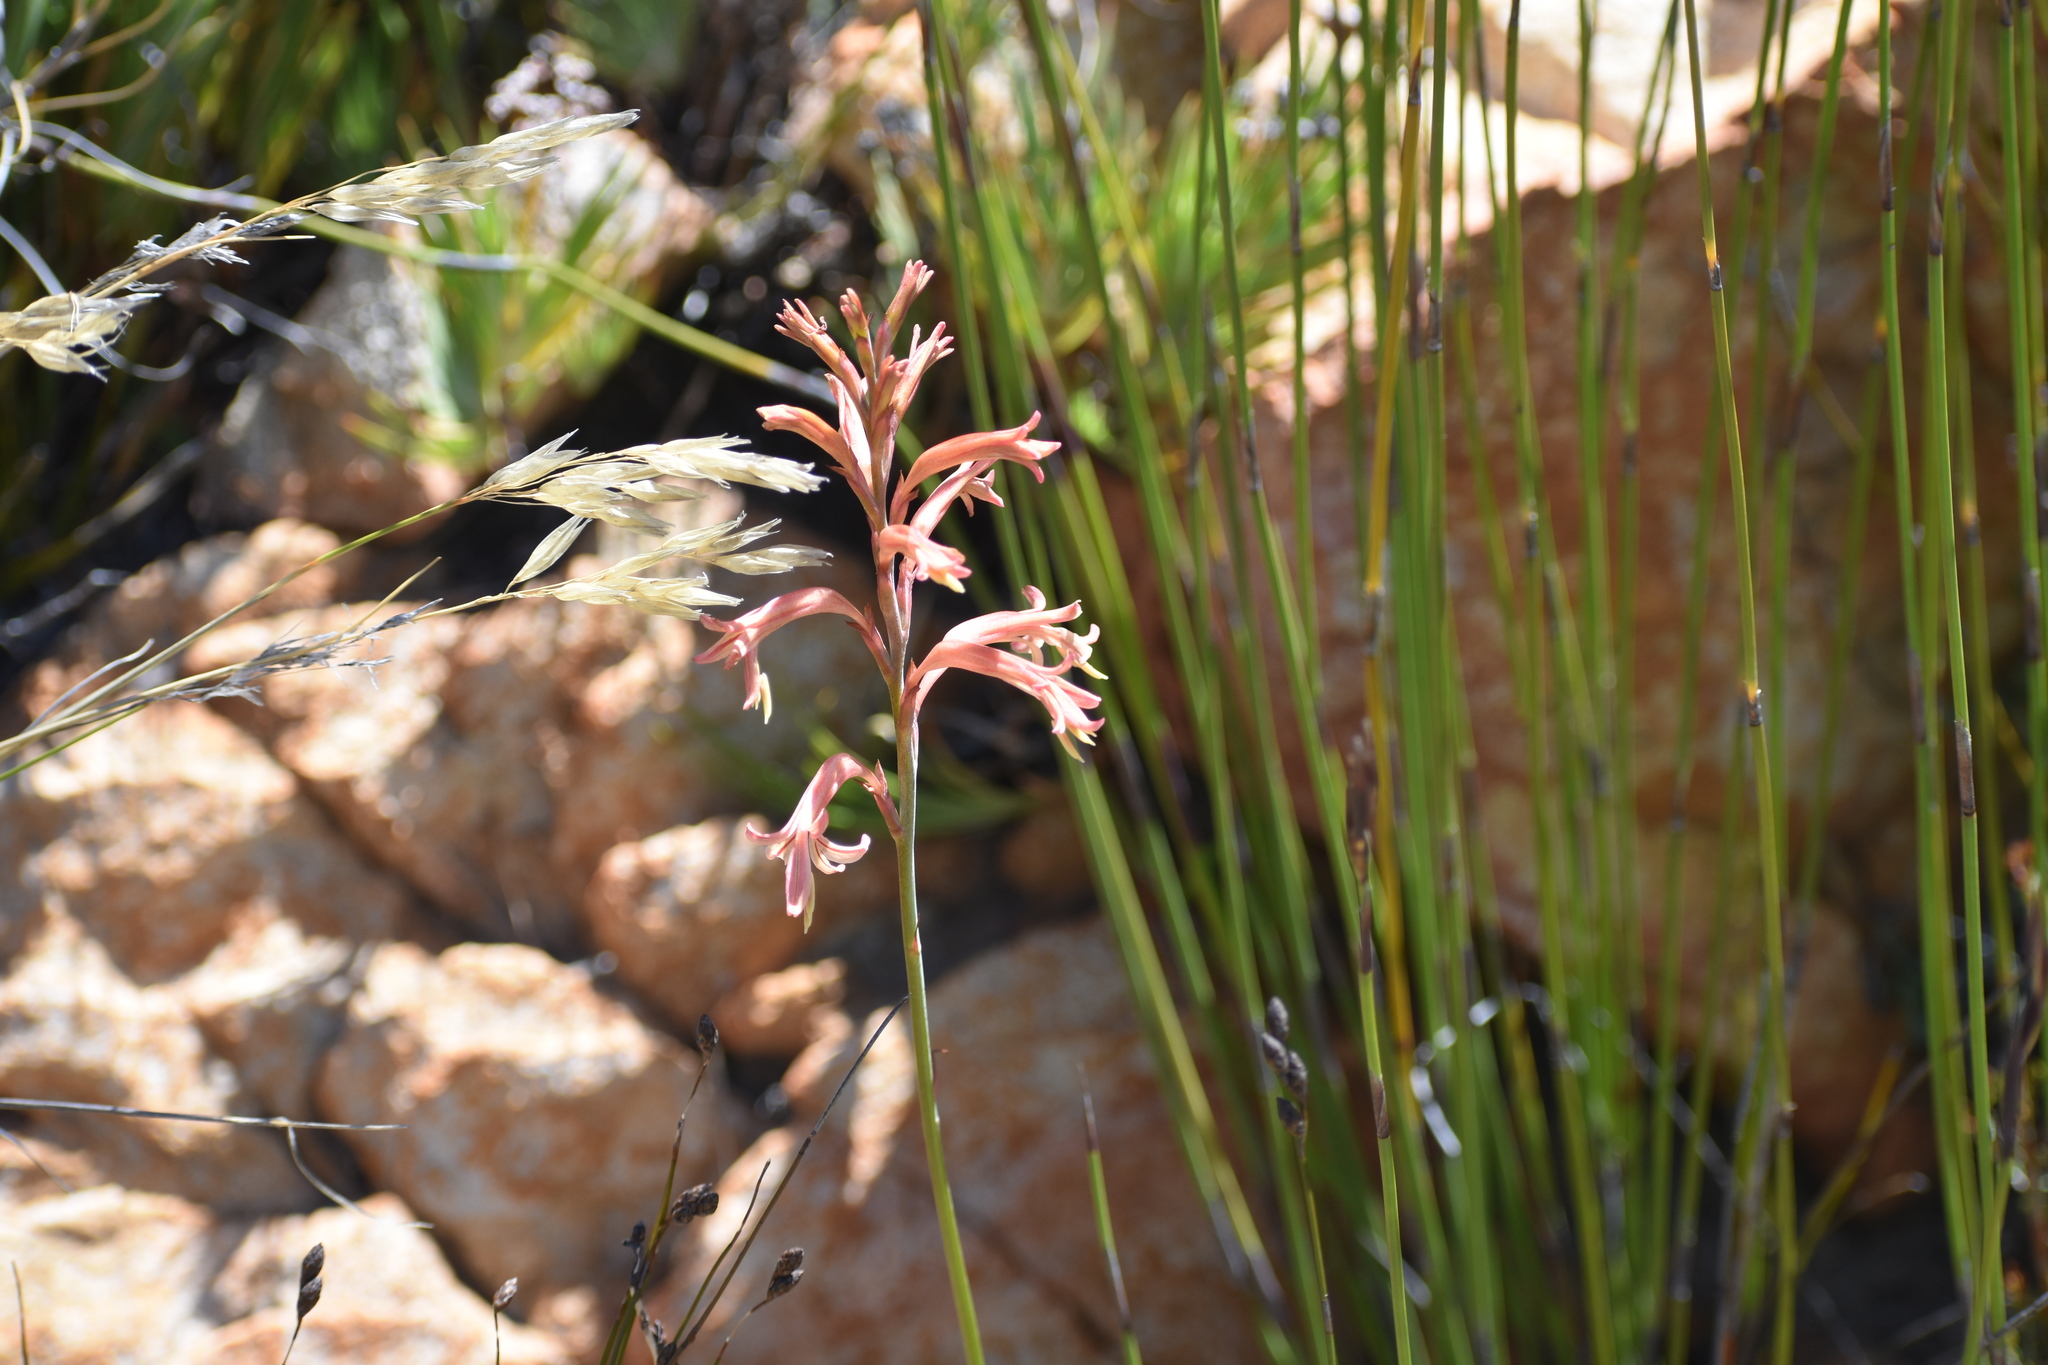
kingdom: Plantae
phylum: Tracheophyta
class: Liliopsida
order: Asparagales
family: Iridaceae
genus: Tritoniopsis
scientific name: Tritoniopsis antholyza
